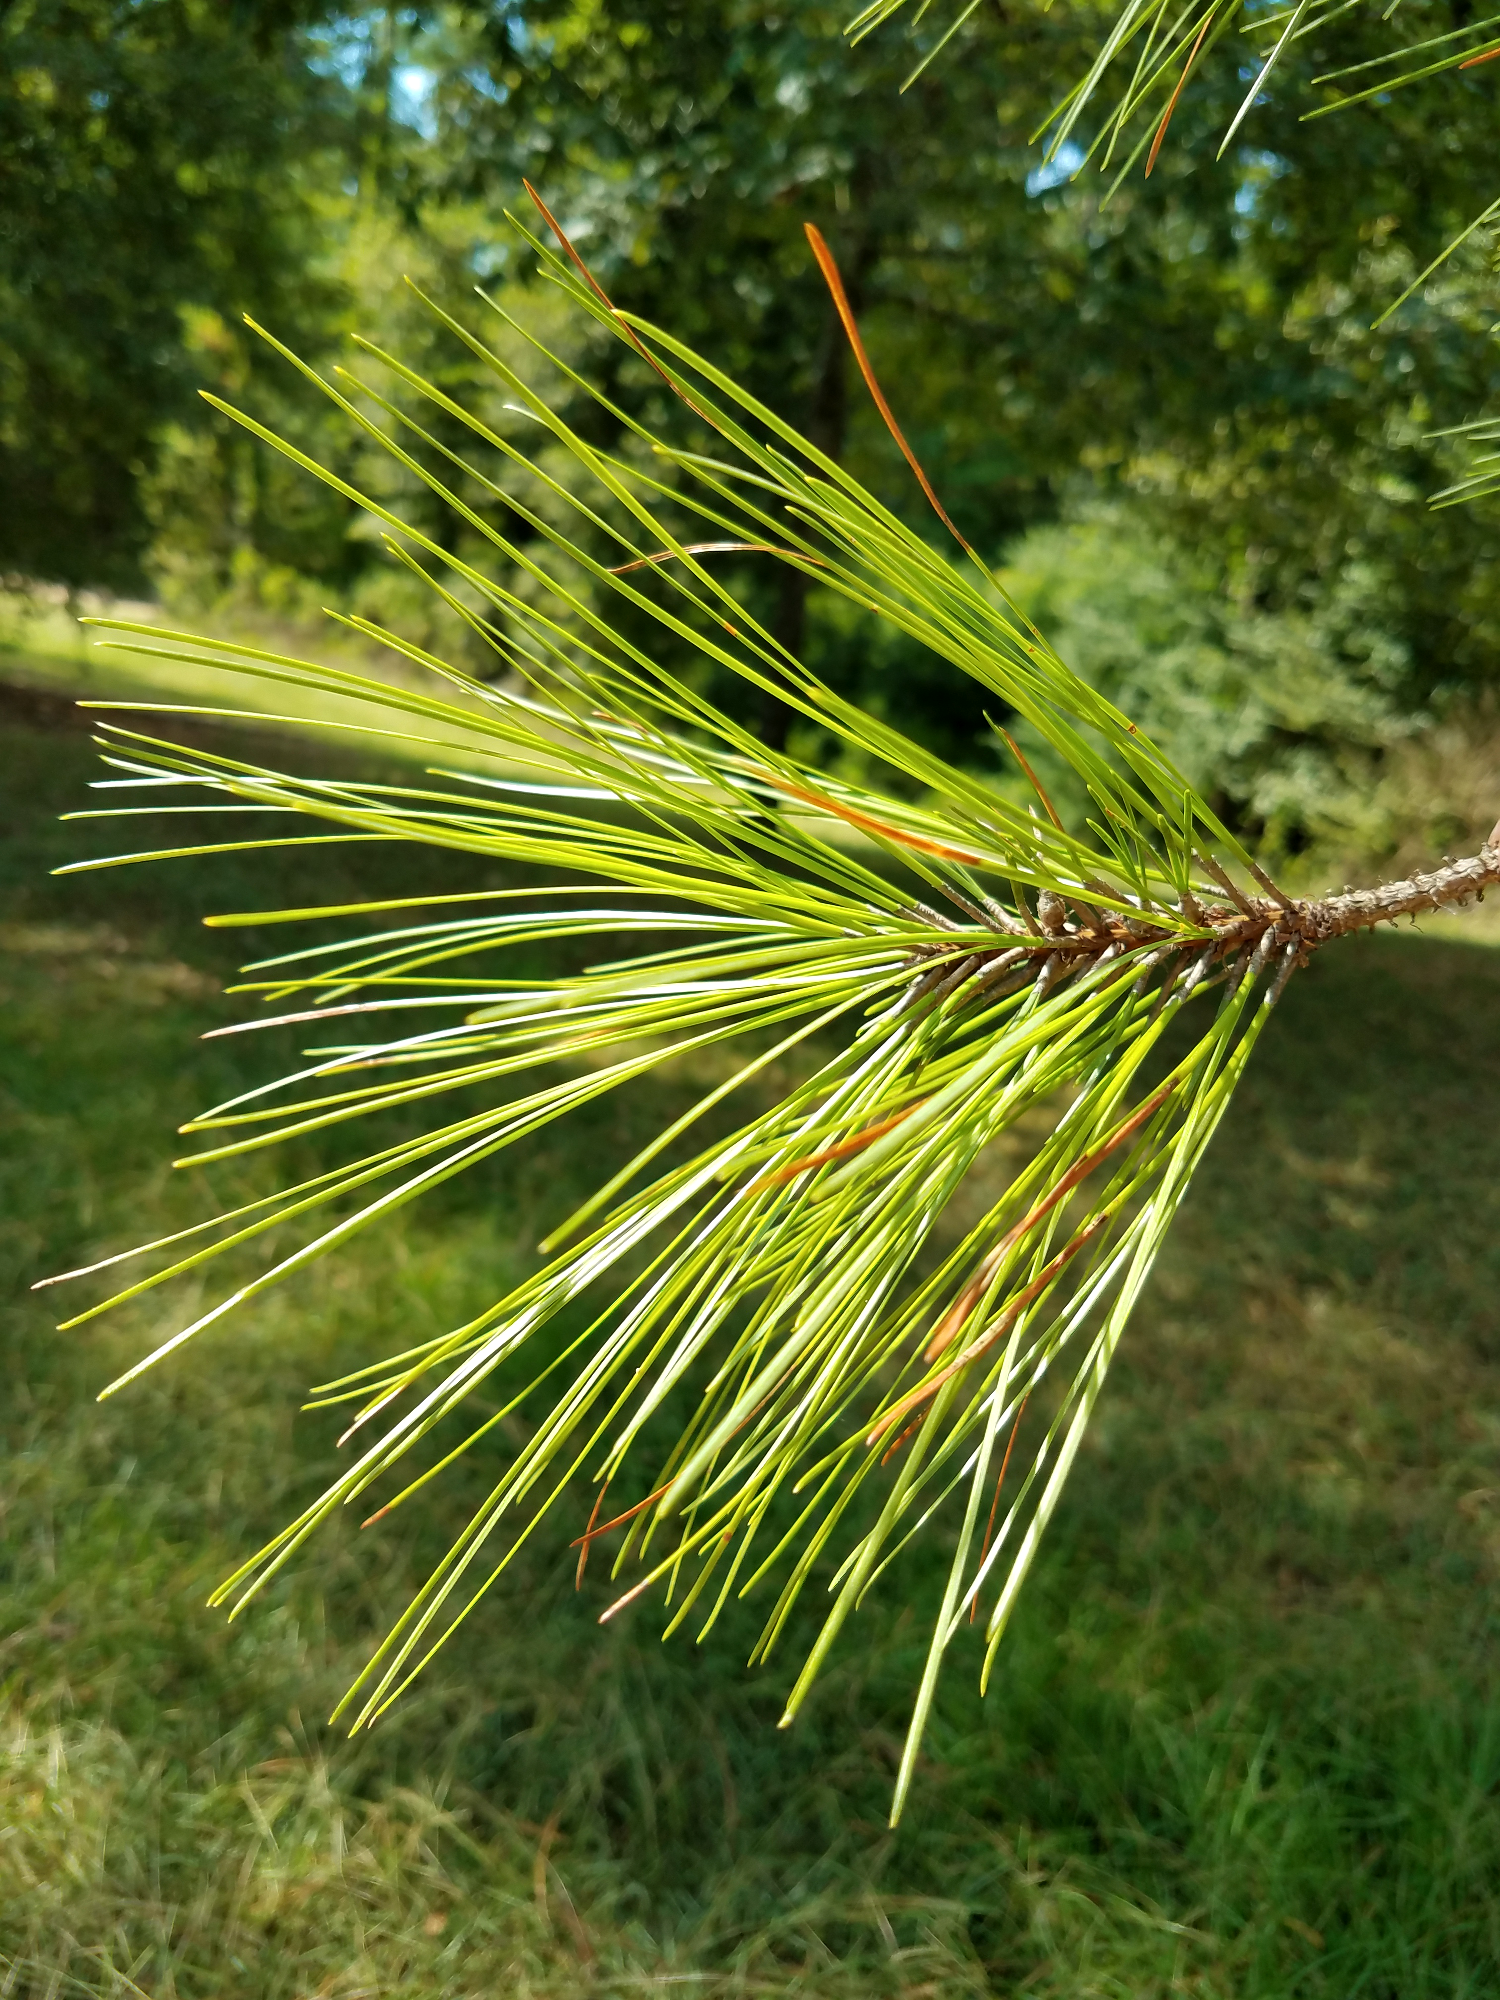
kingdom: Plantae
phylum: Tracheophyta
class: Pinopsida
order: Pinales
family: Pinaceae
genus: Pinus
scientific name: Pinus taeda
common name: Loblolly pine
